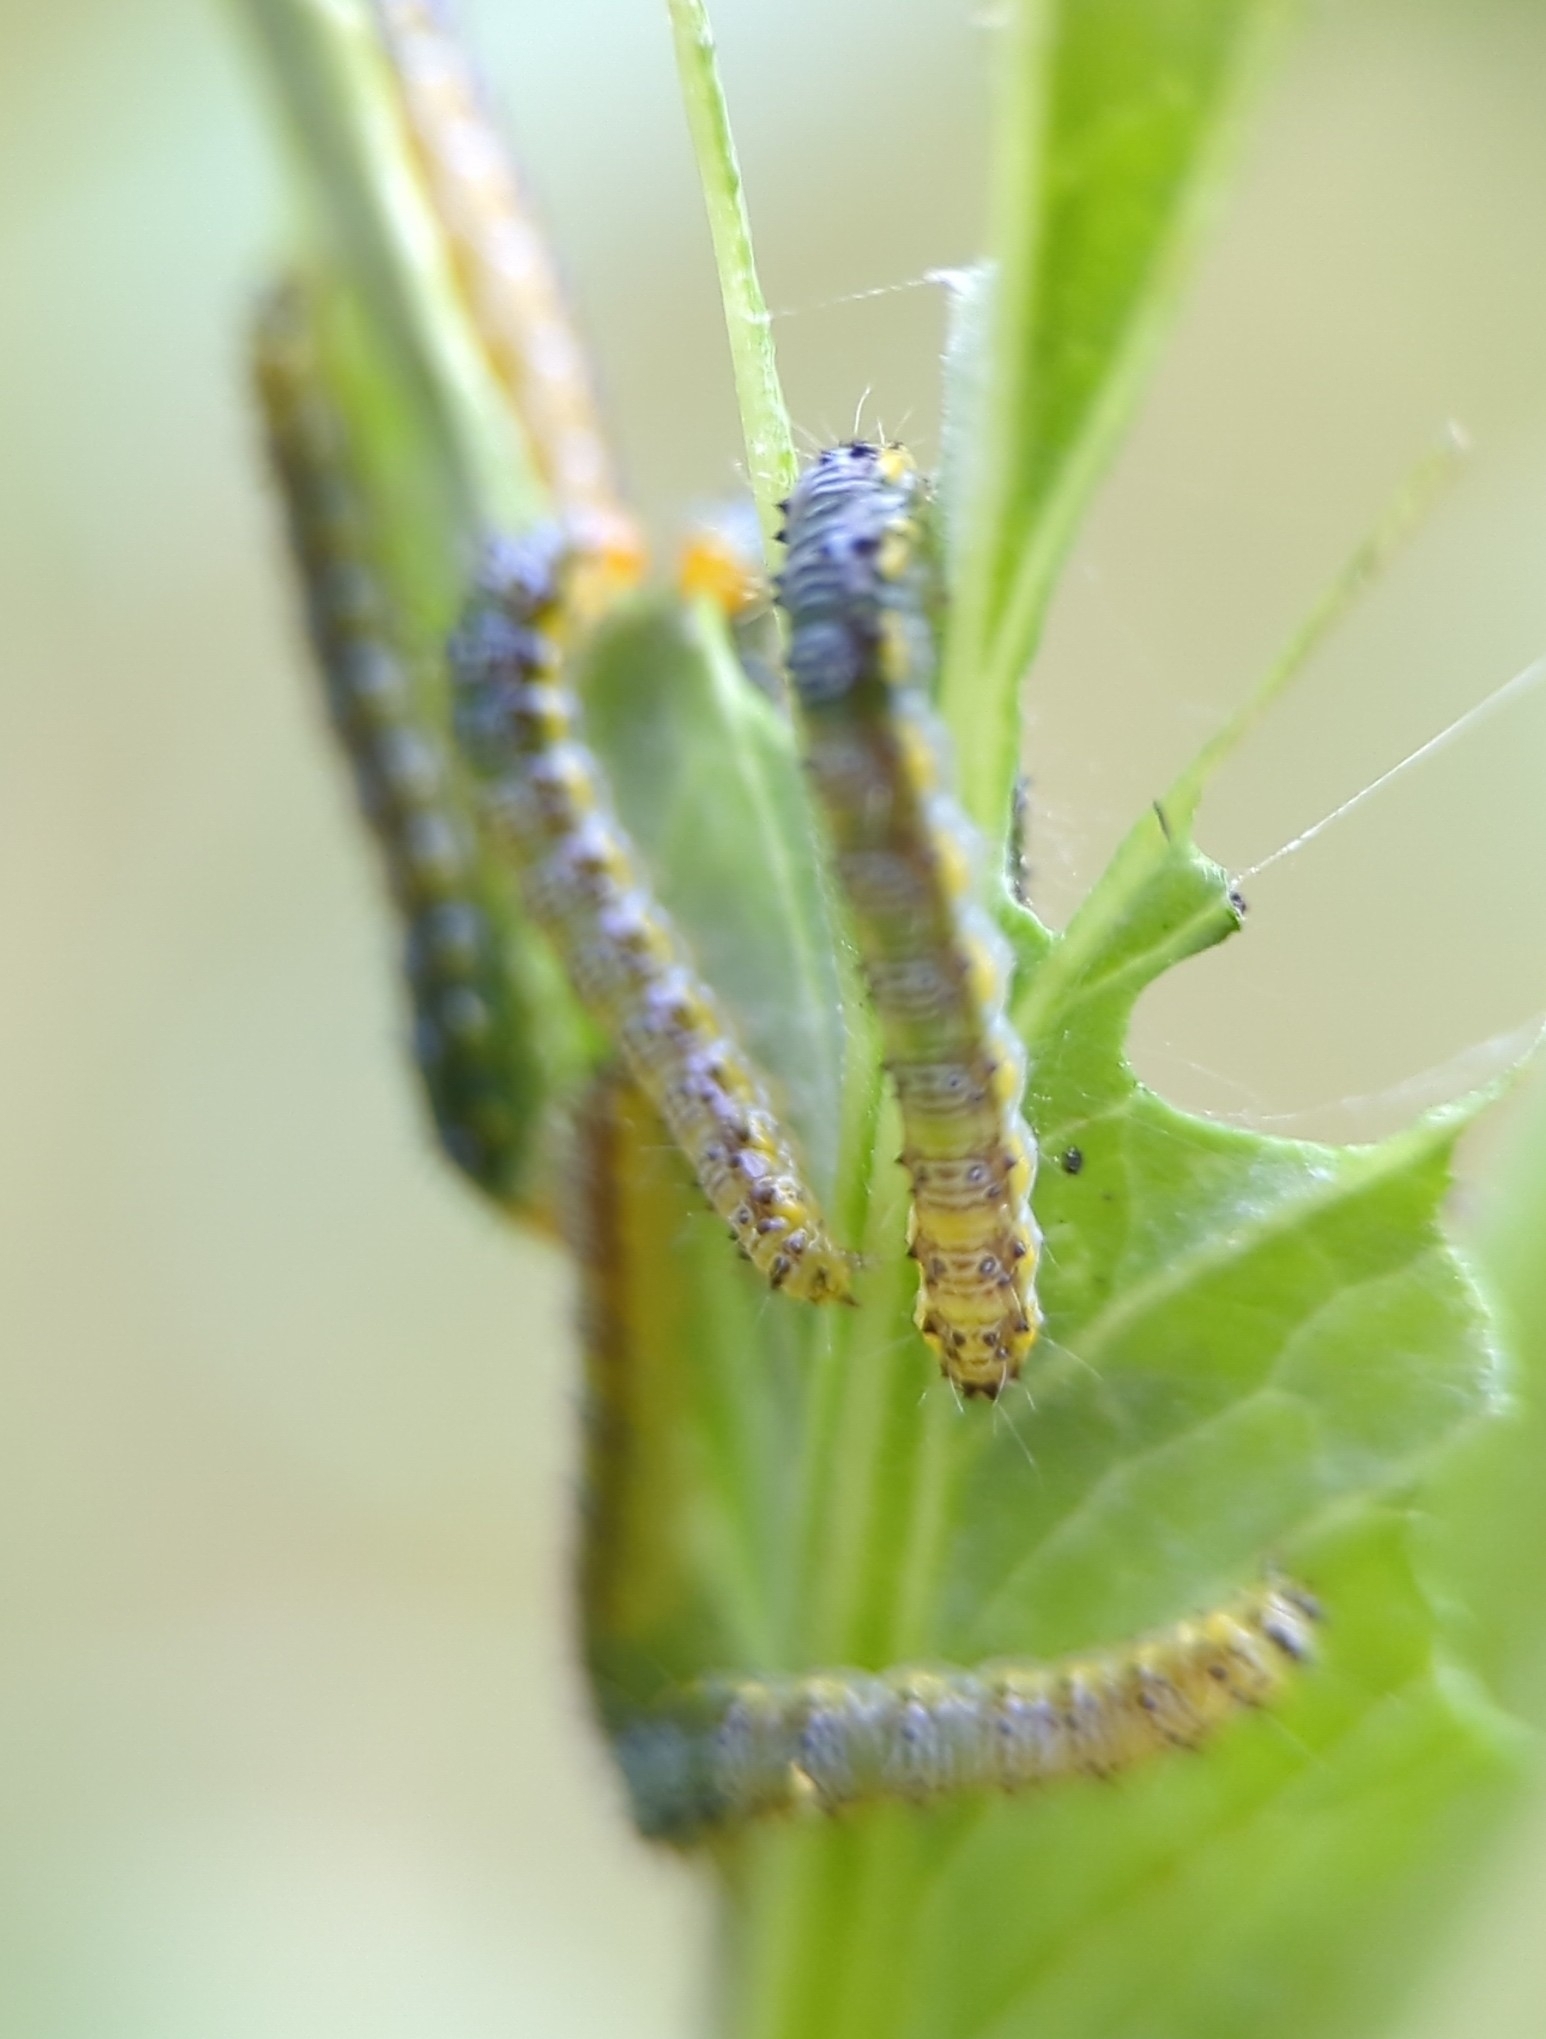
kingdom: Animalia
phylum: Arthropoda
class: Insecta
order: Lepidoptera
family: Crambidae
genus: Evergestis
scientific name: Evergestis rimosalis
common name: Cross-striped cabbageworm moth
